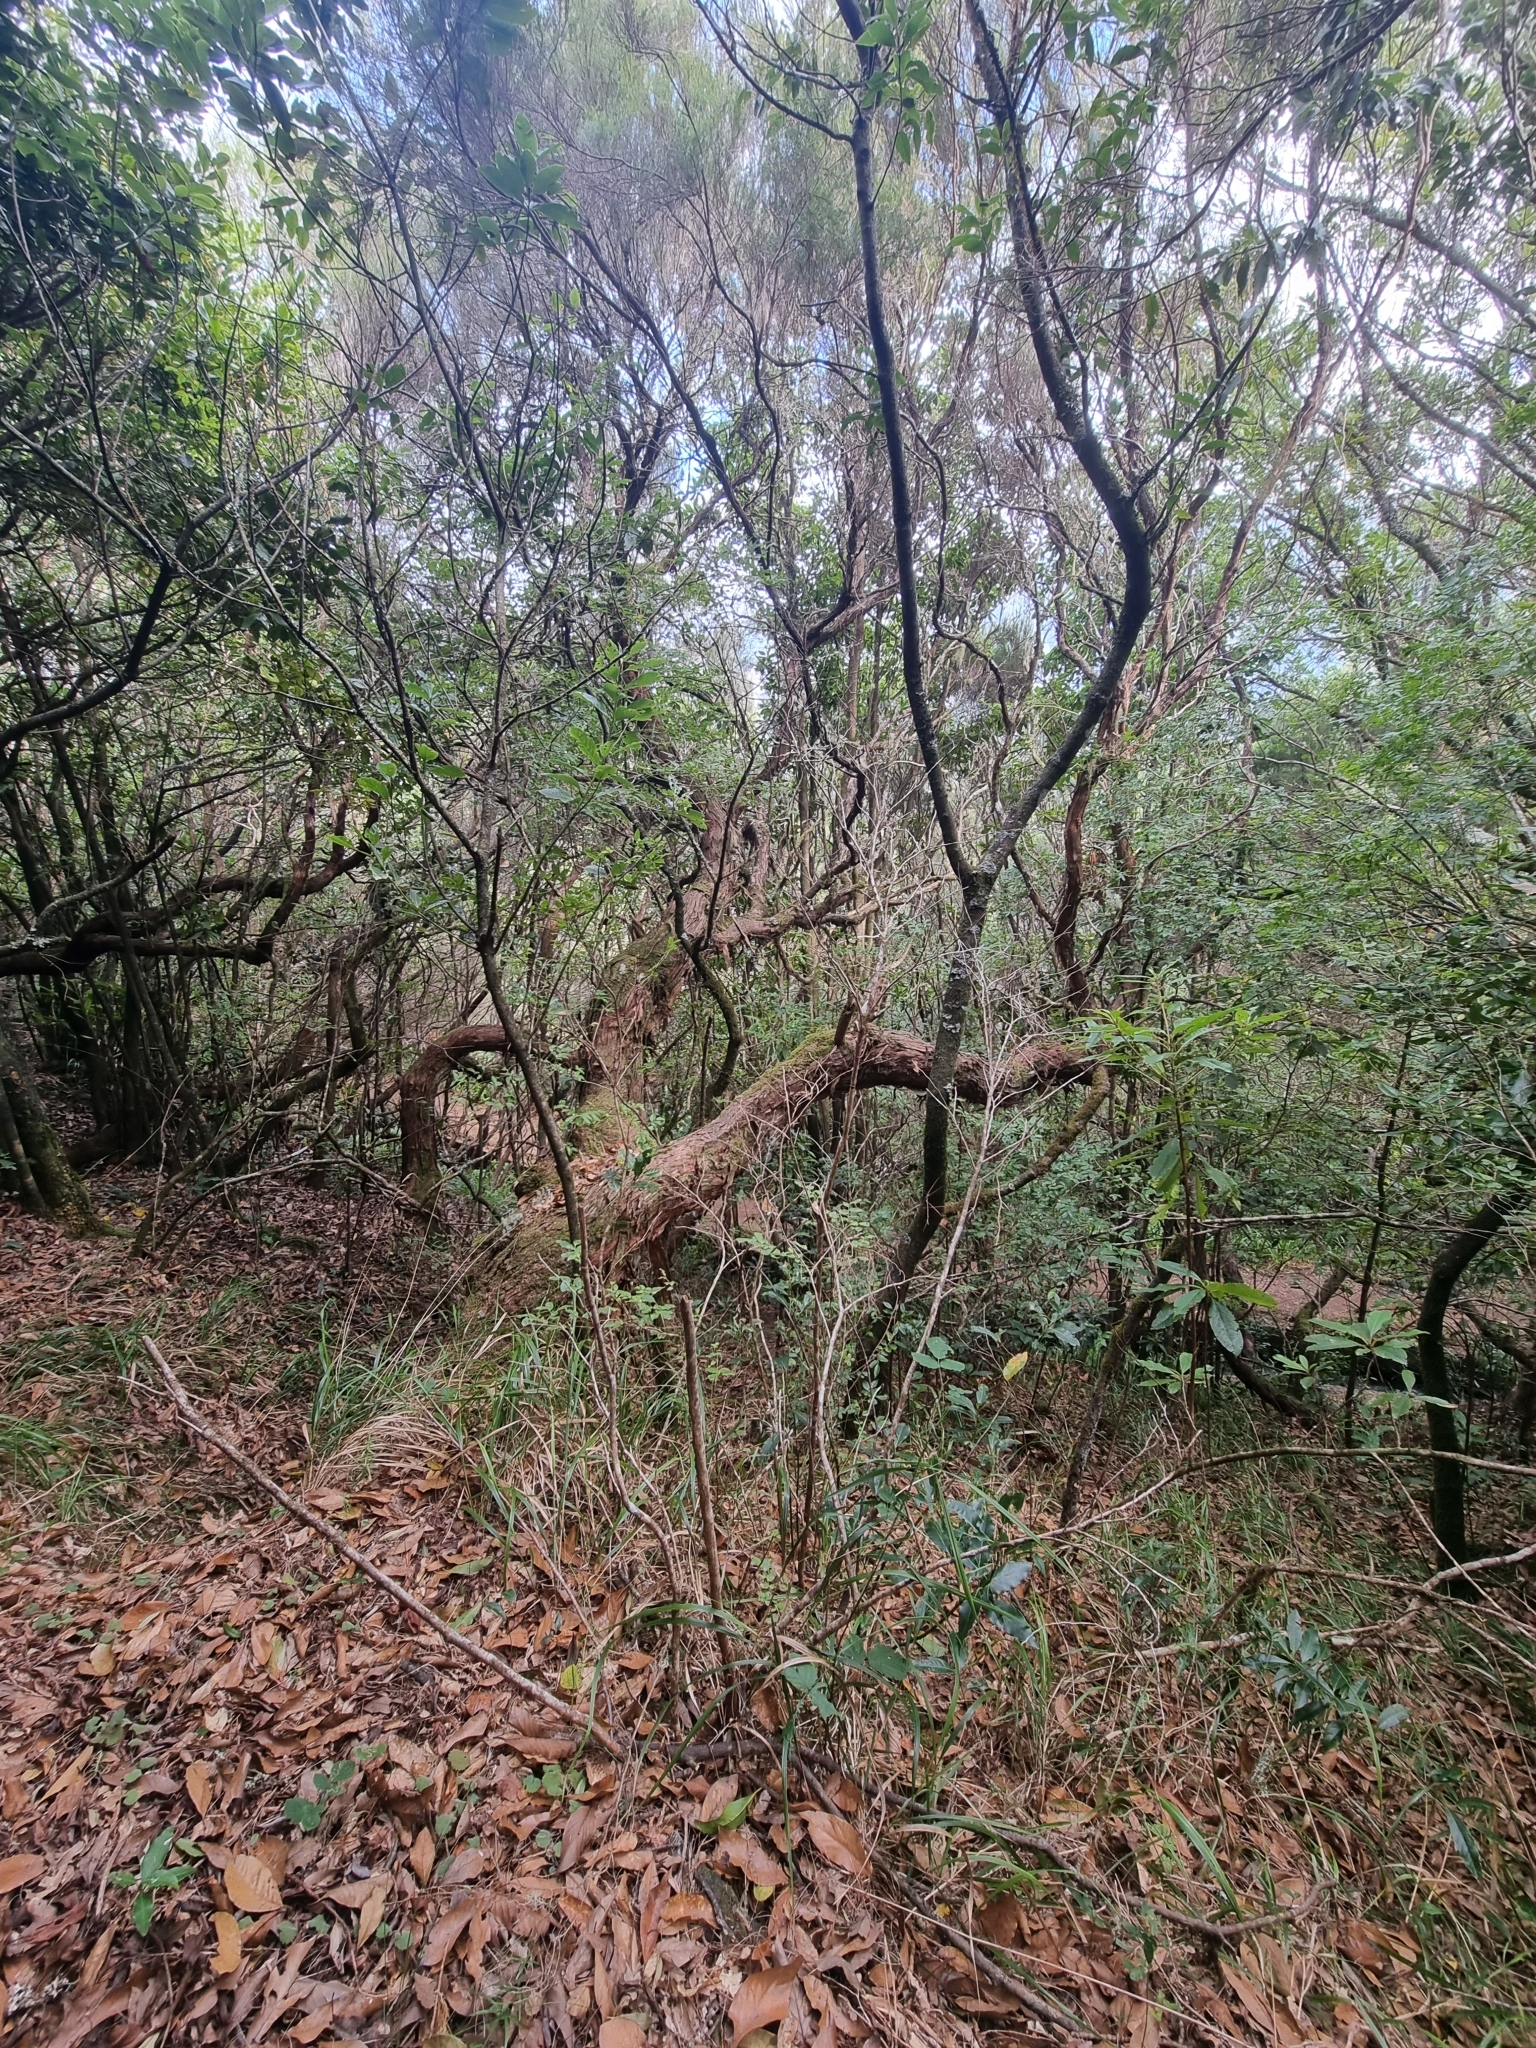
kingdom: Plantae
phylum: Tracheophyta
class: Magnoliopsida
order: Ericales
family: Ericaceae
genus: Erica
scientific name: Erica platycodon
